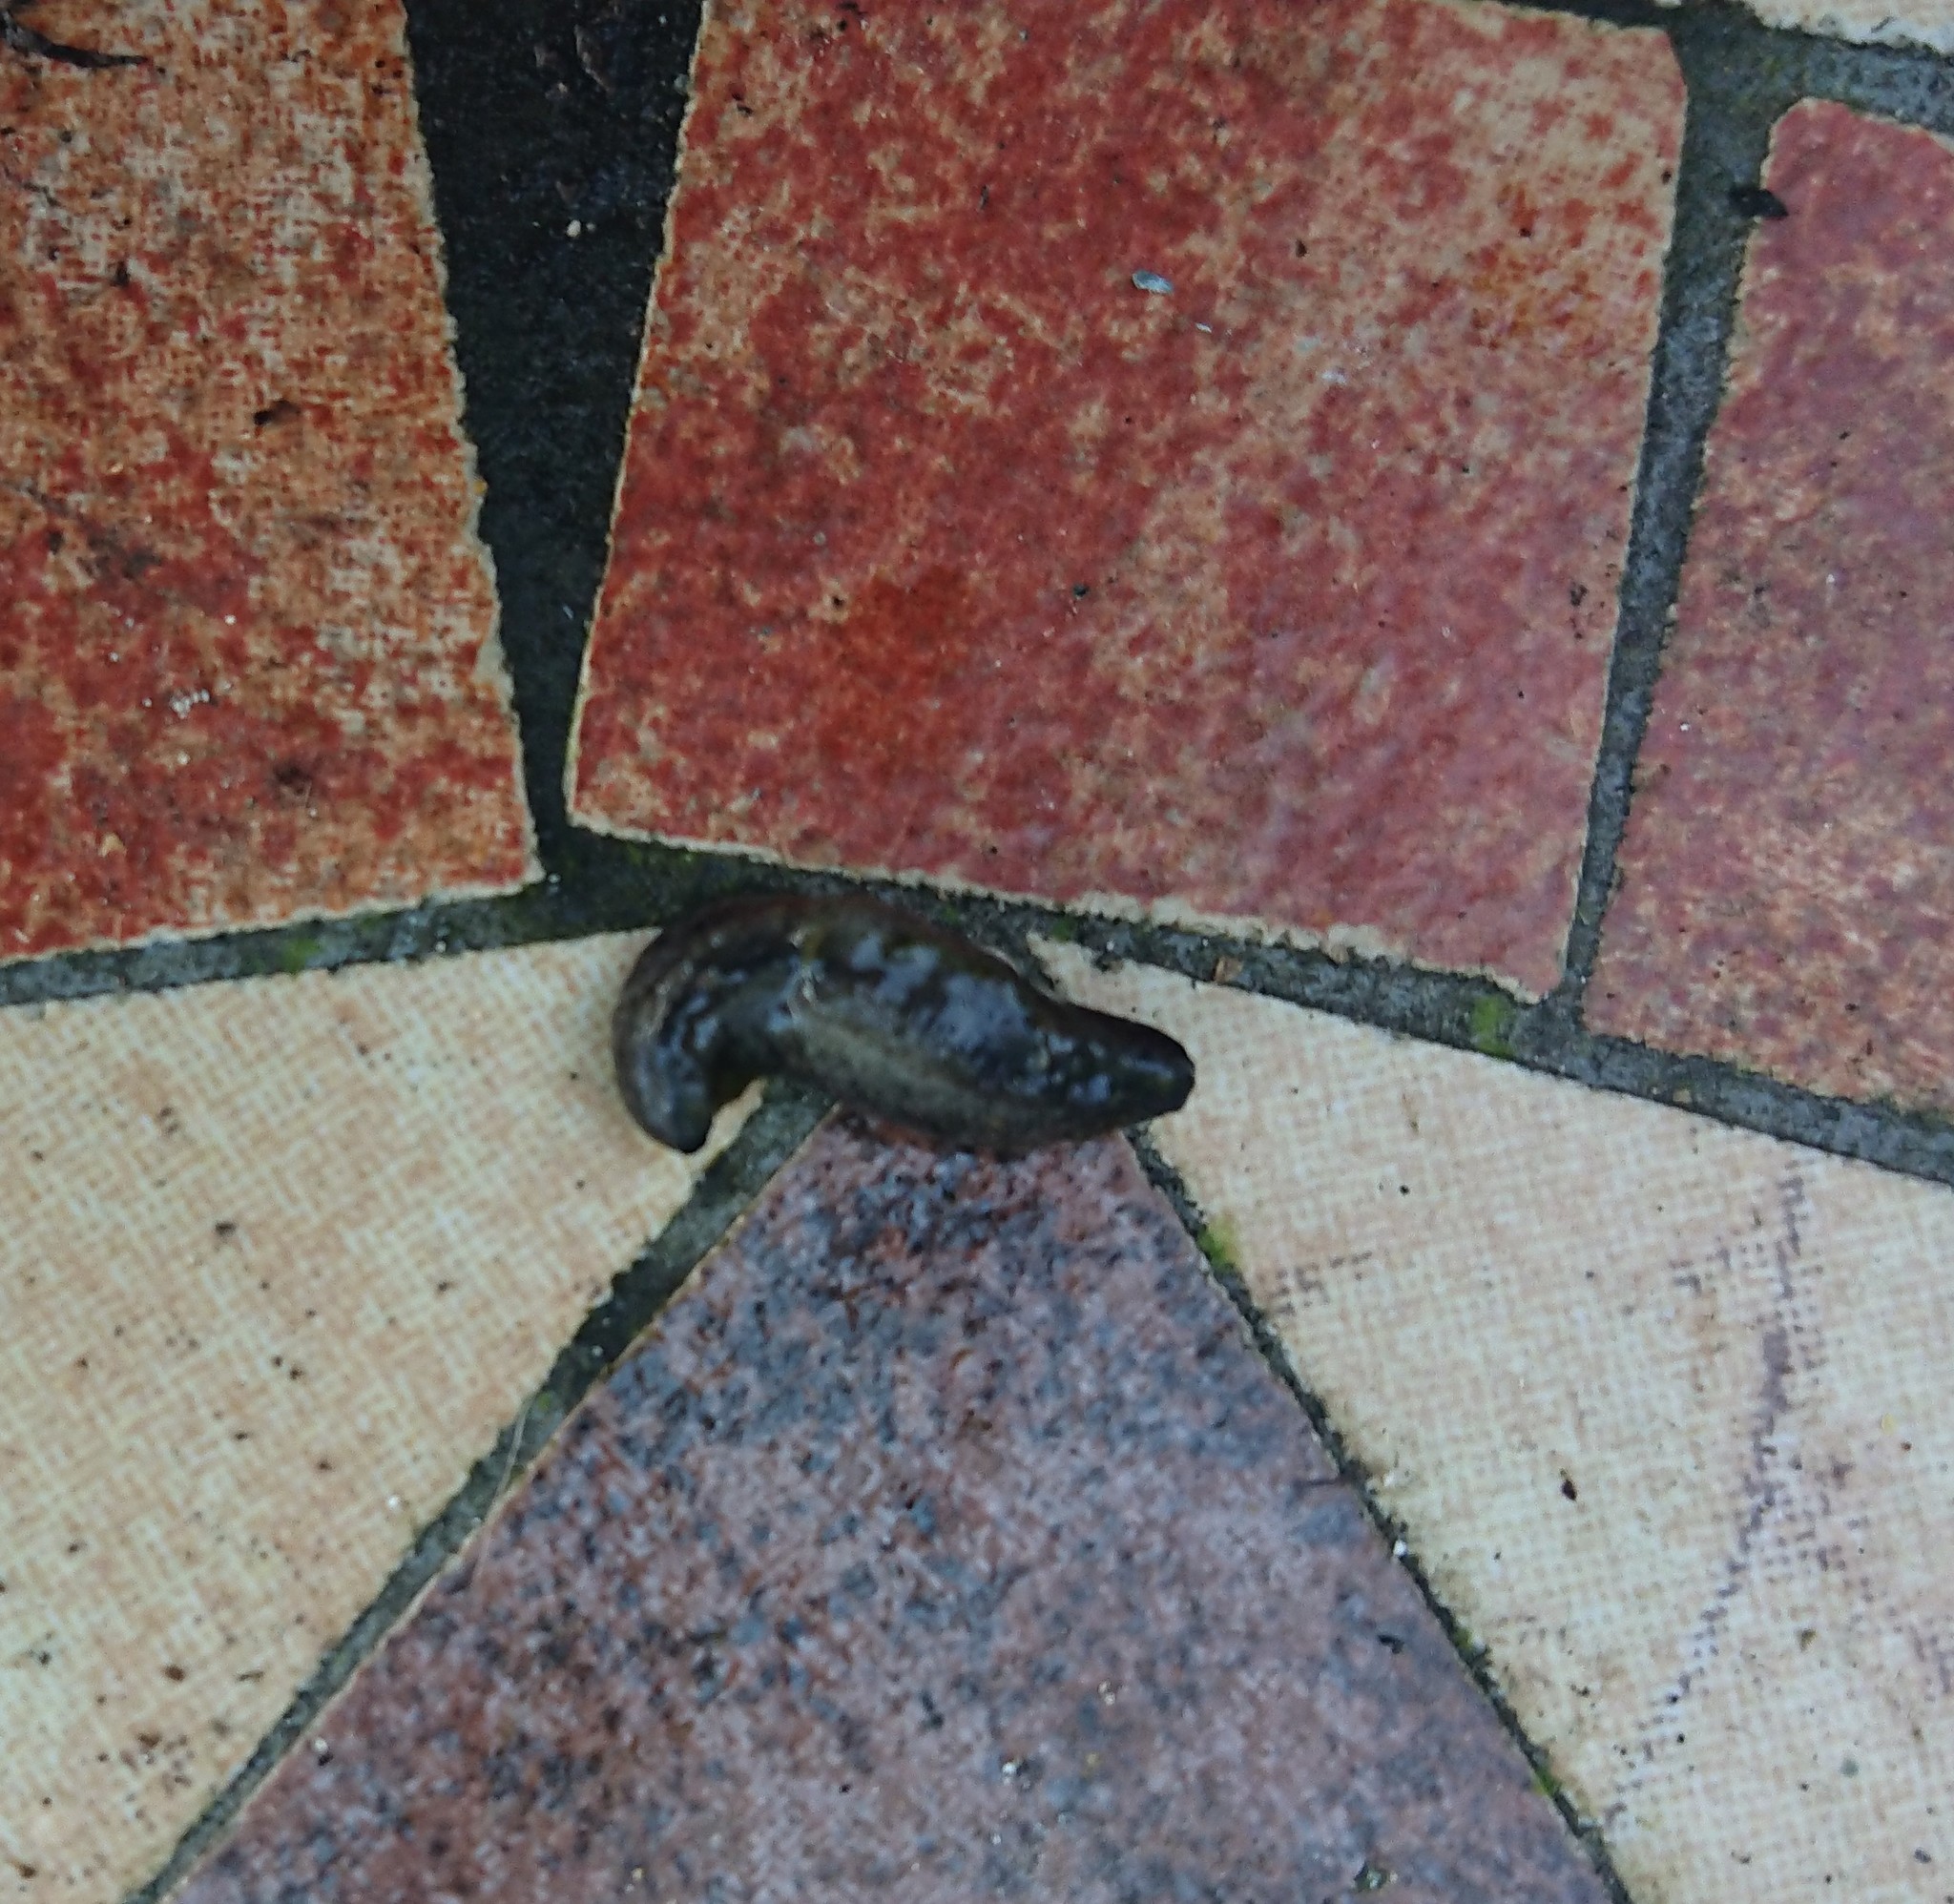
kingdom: Animalia
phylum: Mollusca
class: Gastropoda
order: Stylommatophora
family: Milacidae
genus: Tandonia
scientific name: Tandonia budapestensis
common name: Budapest slug
